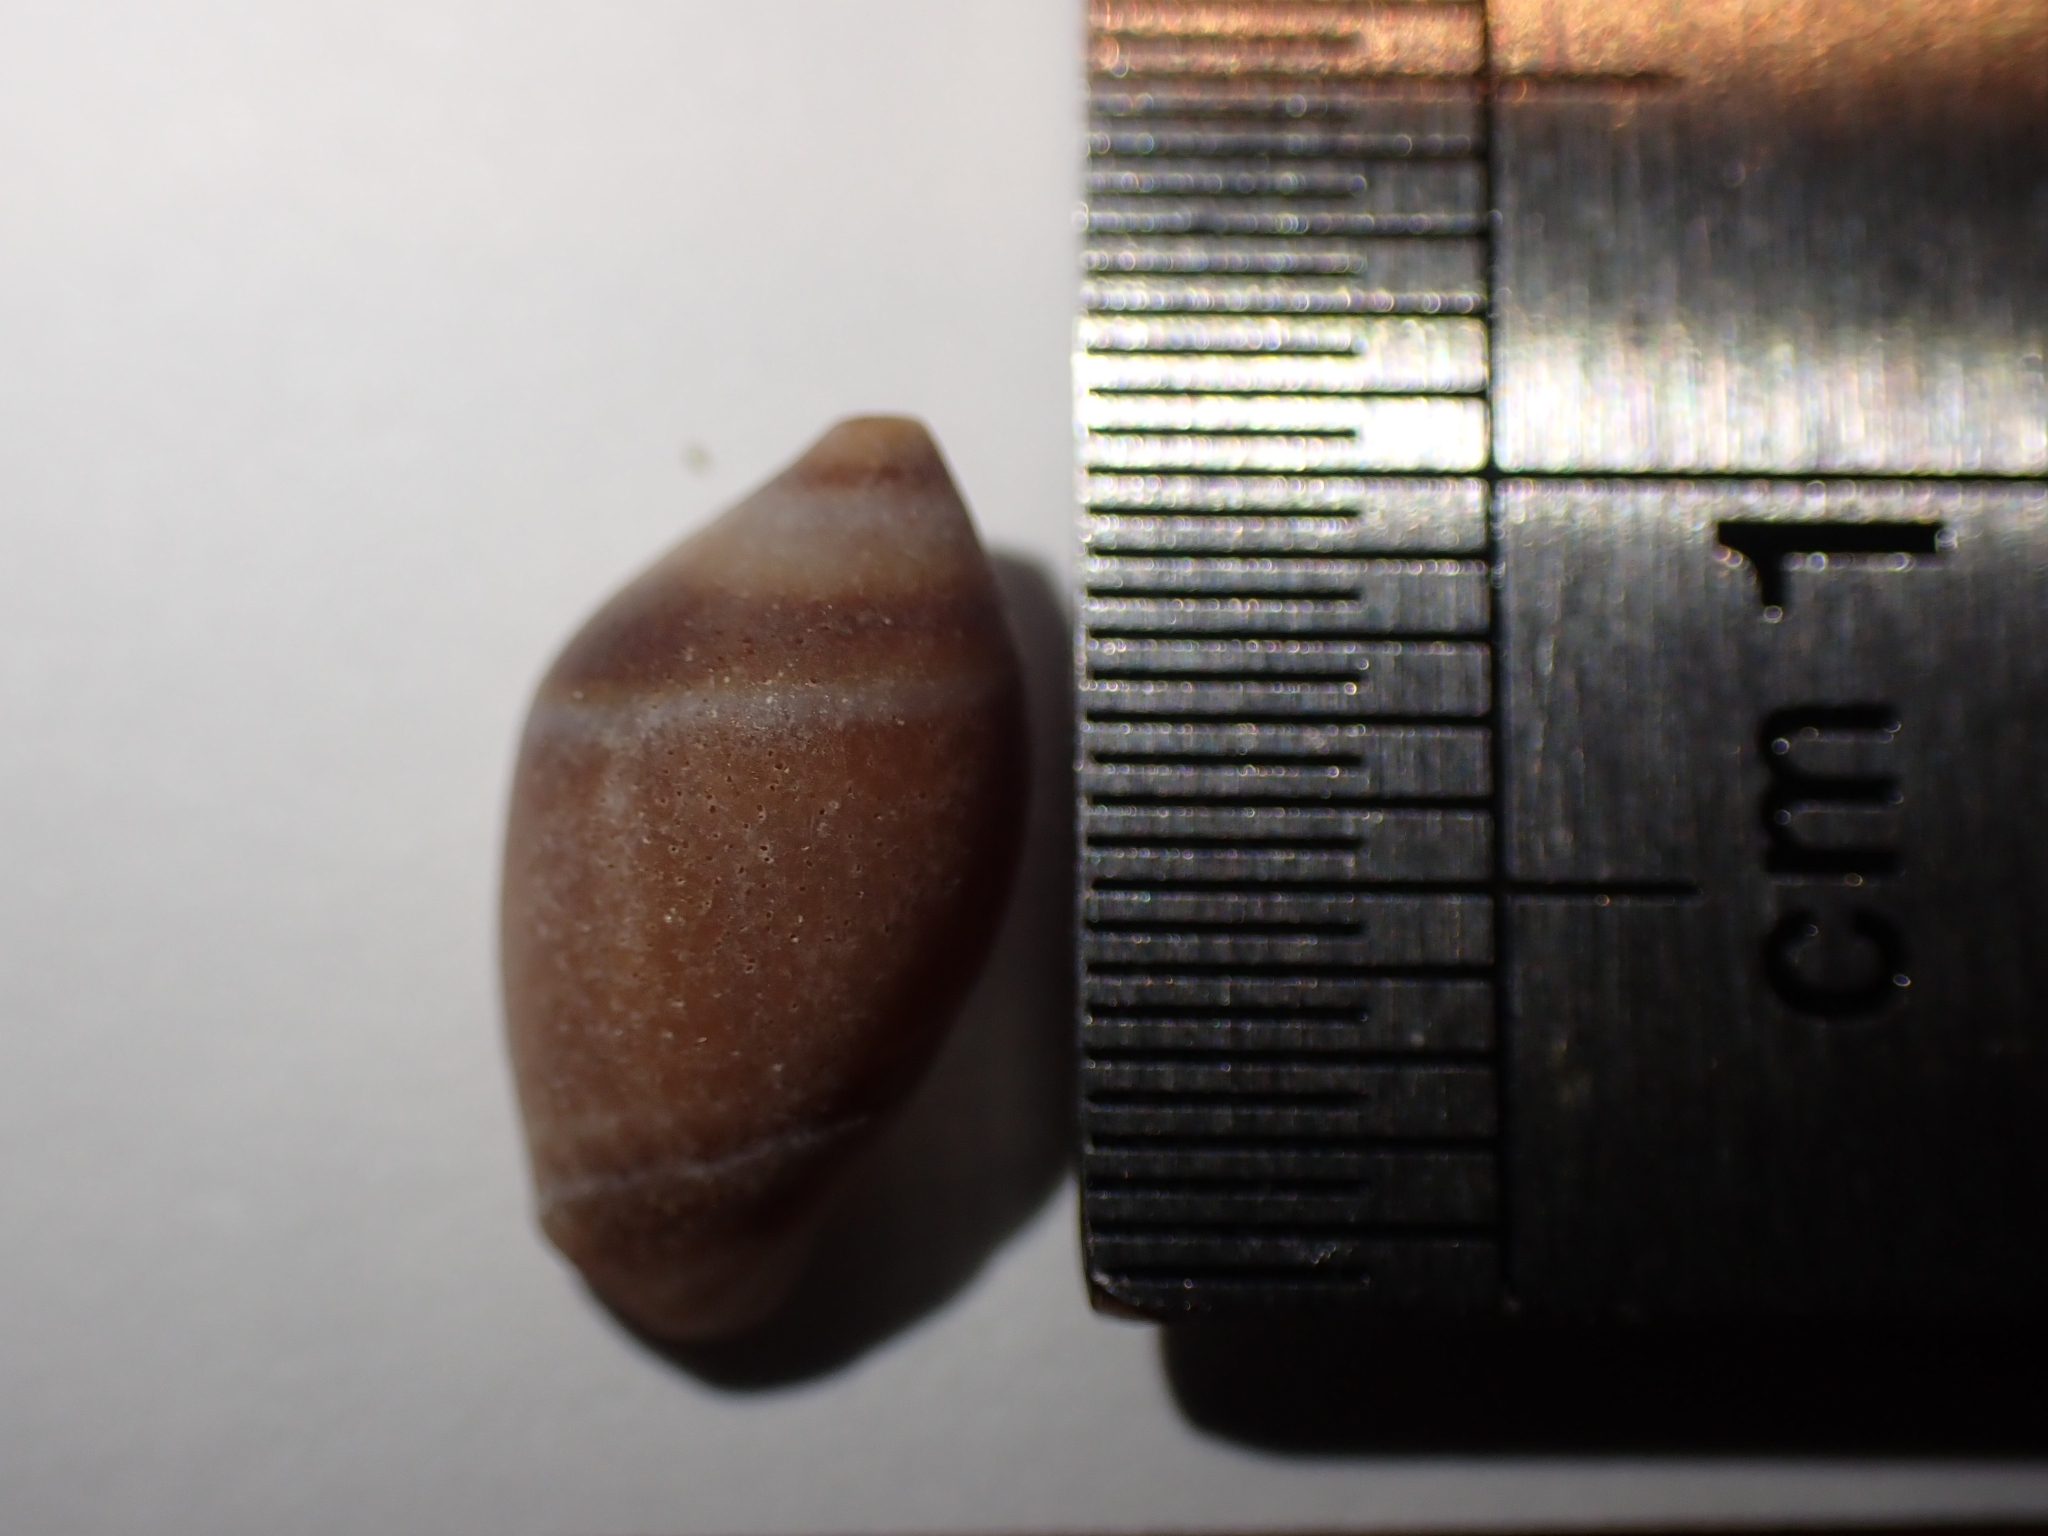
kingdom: Animalia
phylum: Mollusca
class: Gastropoda
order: Neogastropoda
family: Ancillariidae
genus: Amalda
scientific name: Amalda depressa
